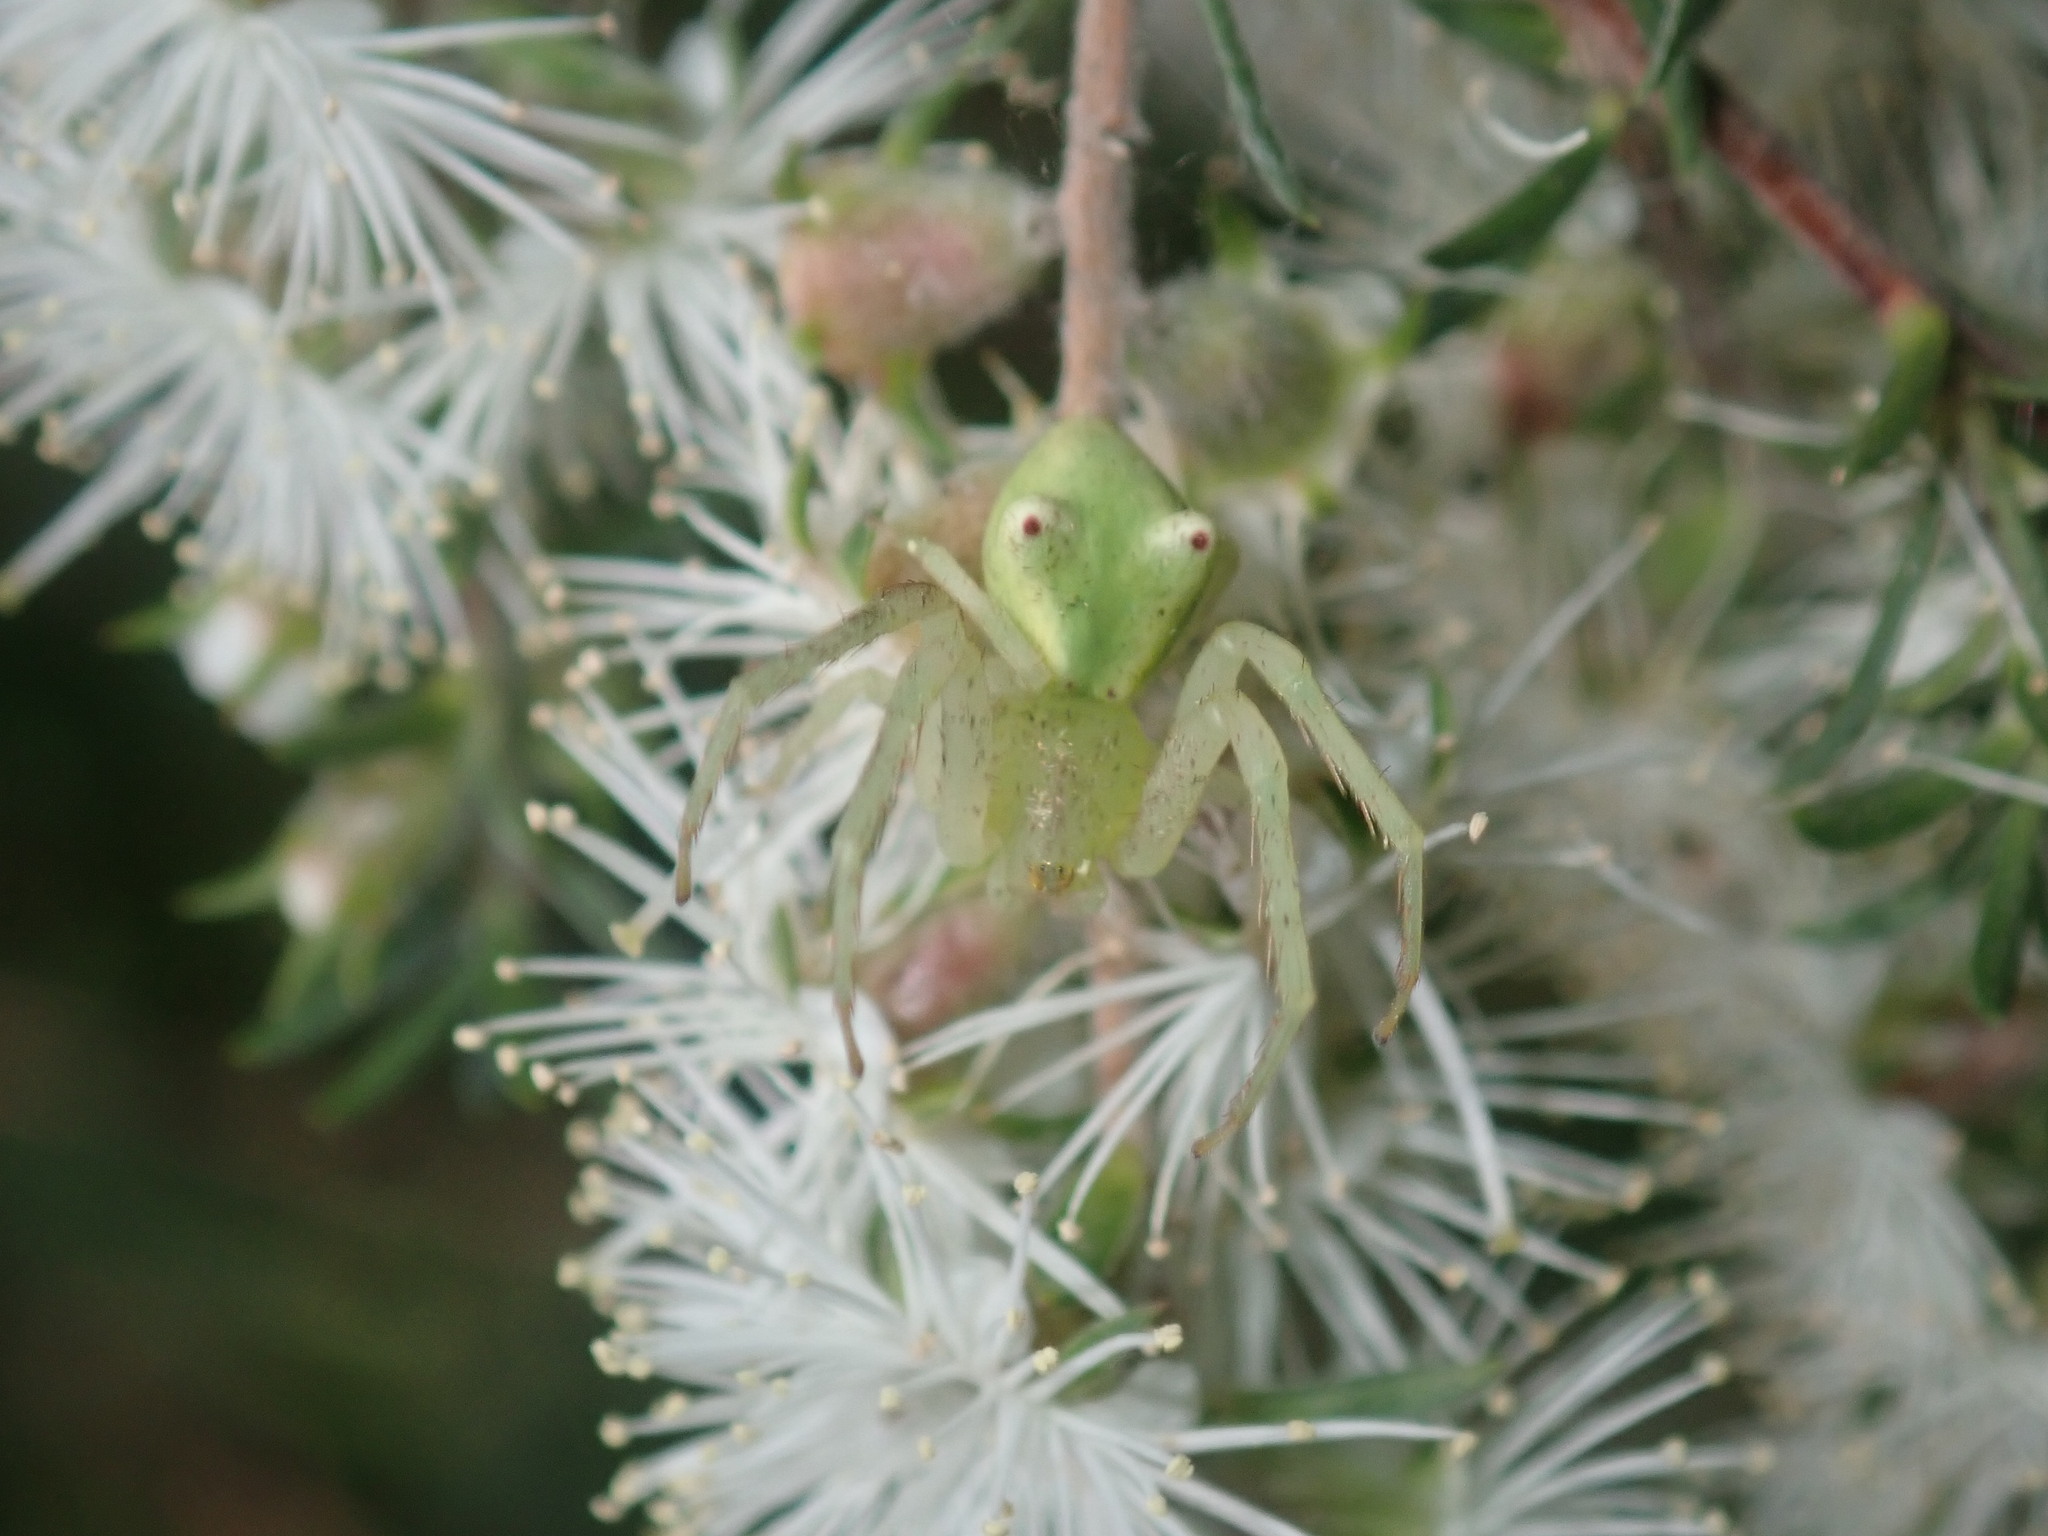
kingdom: Animalia
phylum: Arthropoda
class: Arachnida
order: Araneae
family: Thomisidae
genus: Sidymella
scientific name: Sidymella rubrosignata
